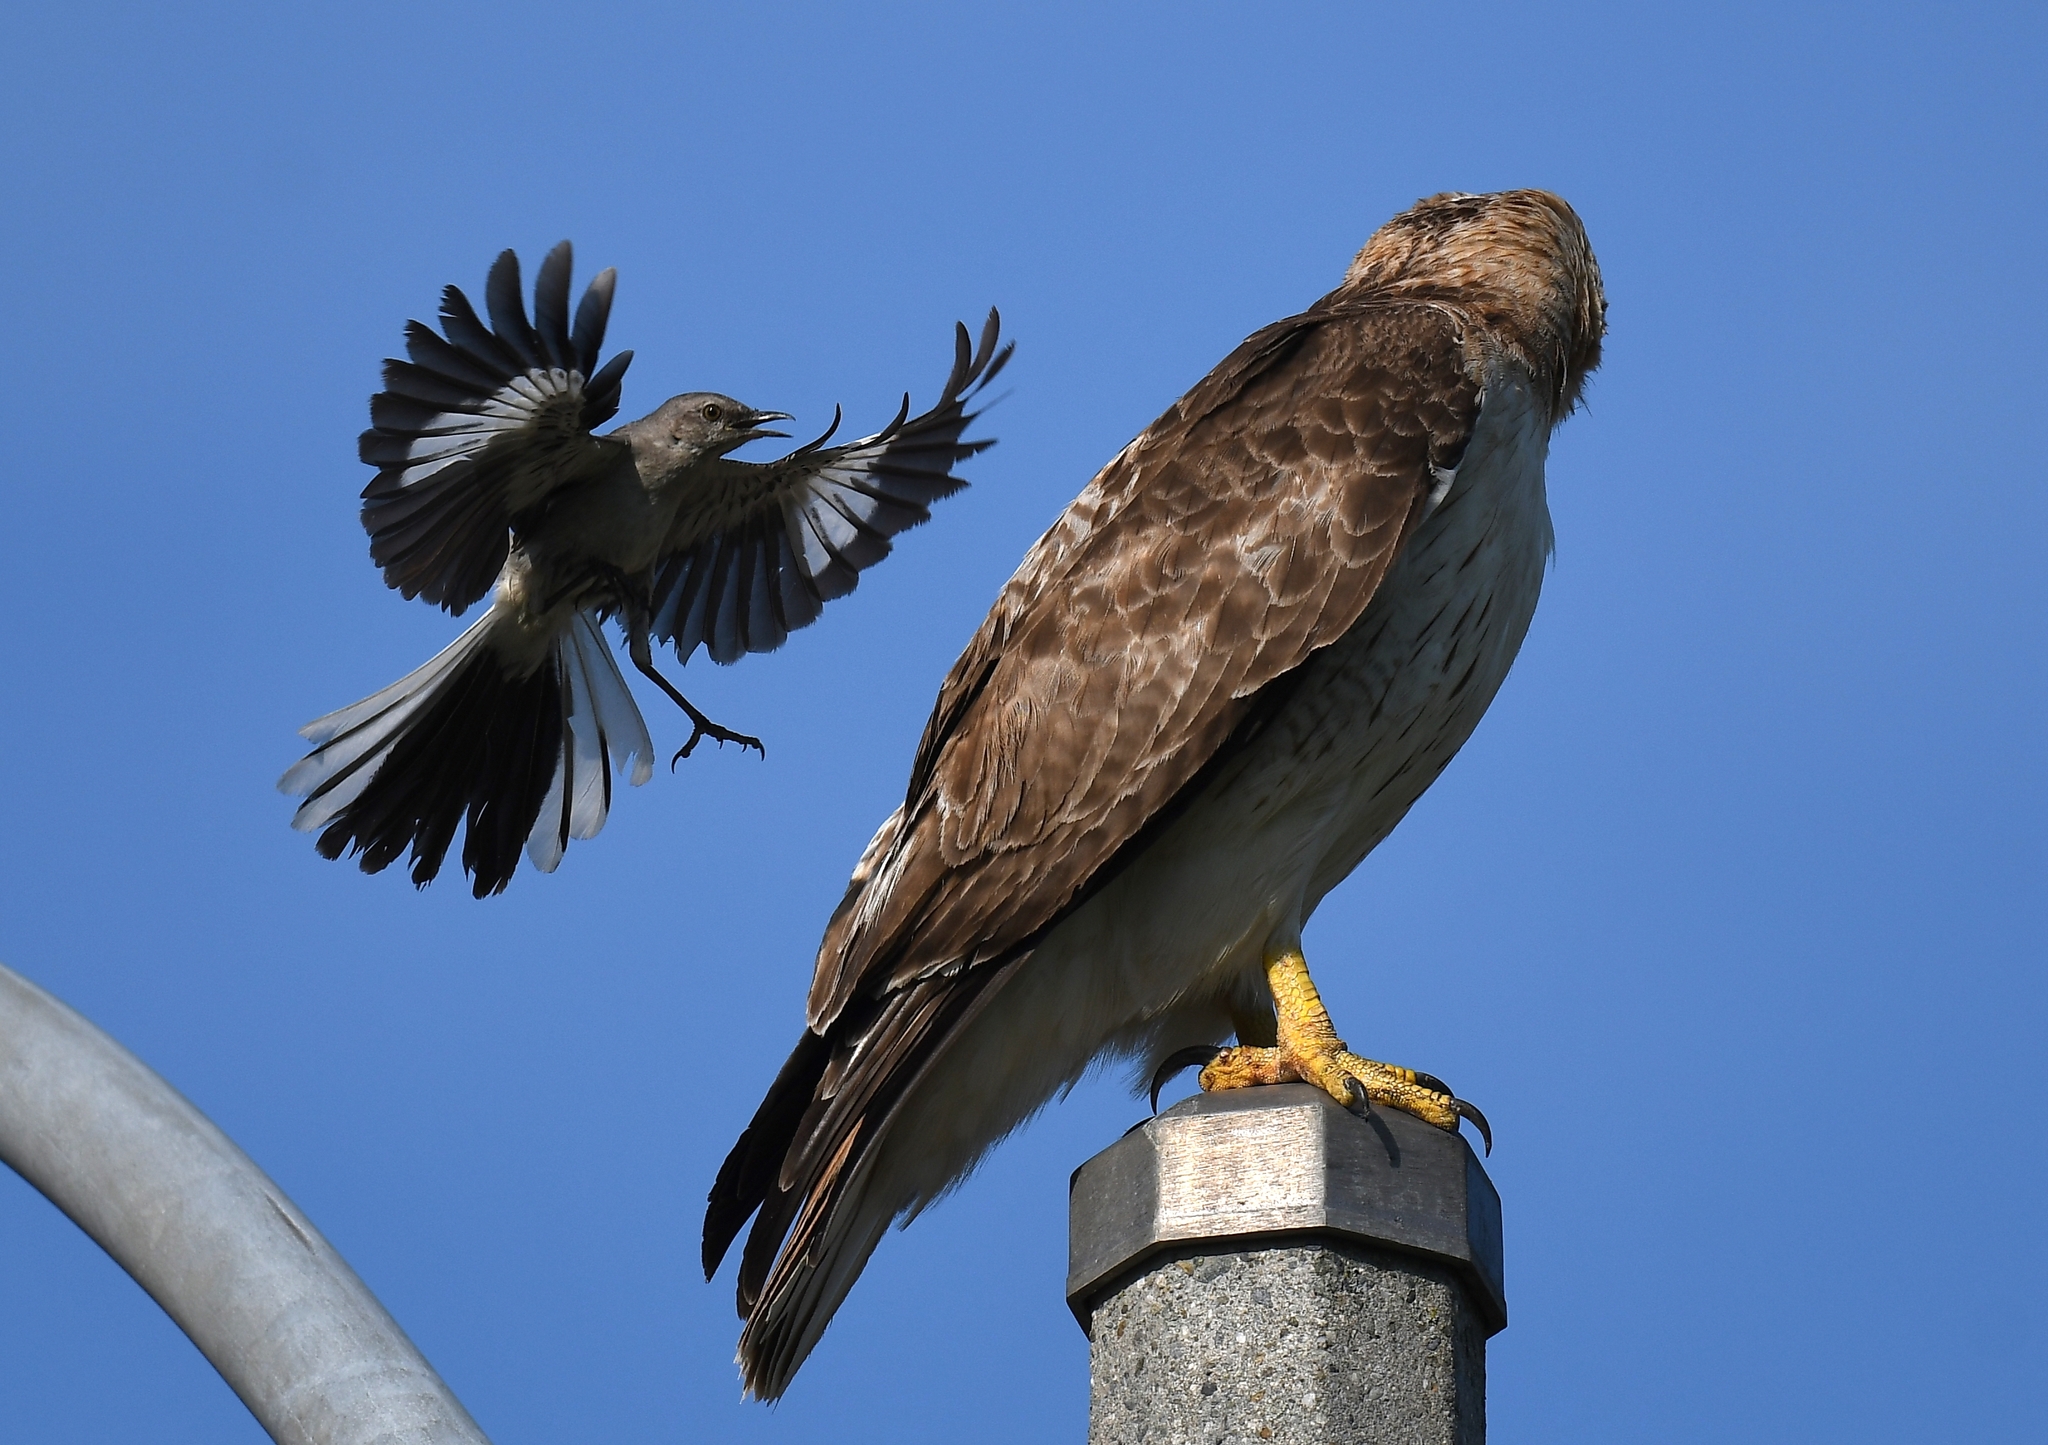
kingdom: Animalia
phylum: Chordata
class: Aves
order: Passeriformes
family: Mimidae
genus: Mimus
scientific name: Mimus polyglottos
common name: Northern mockingbird
